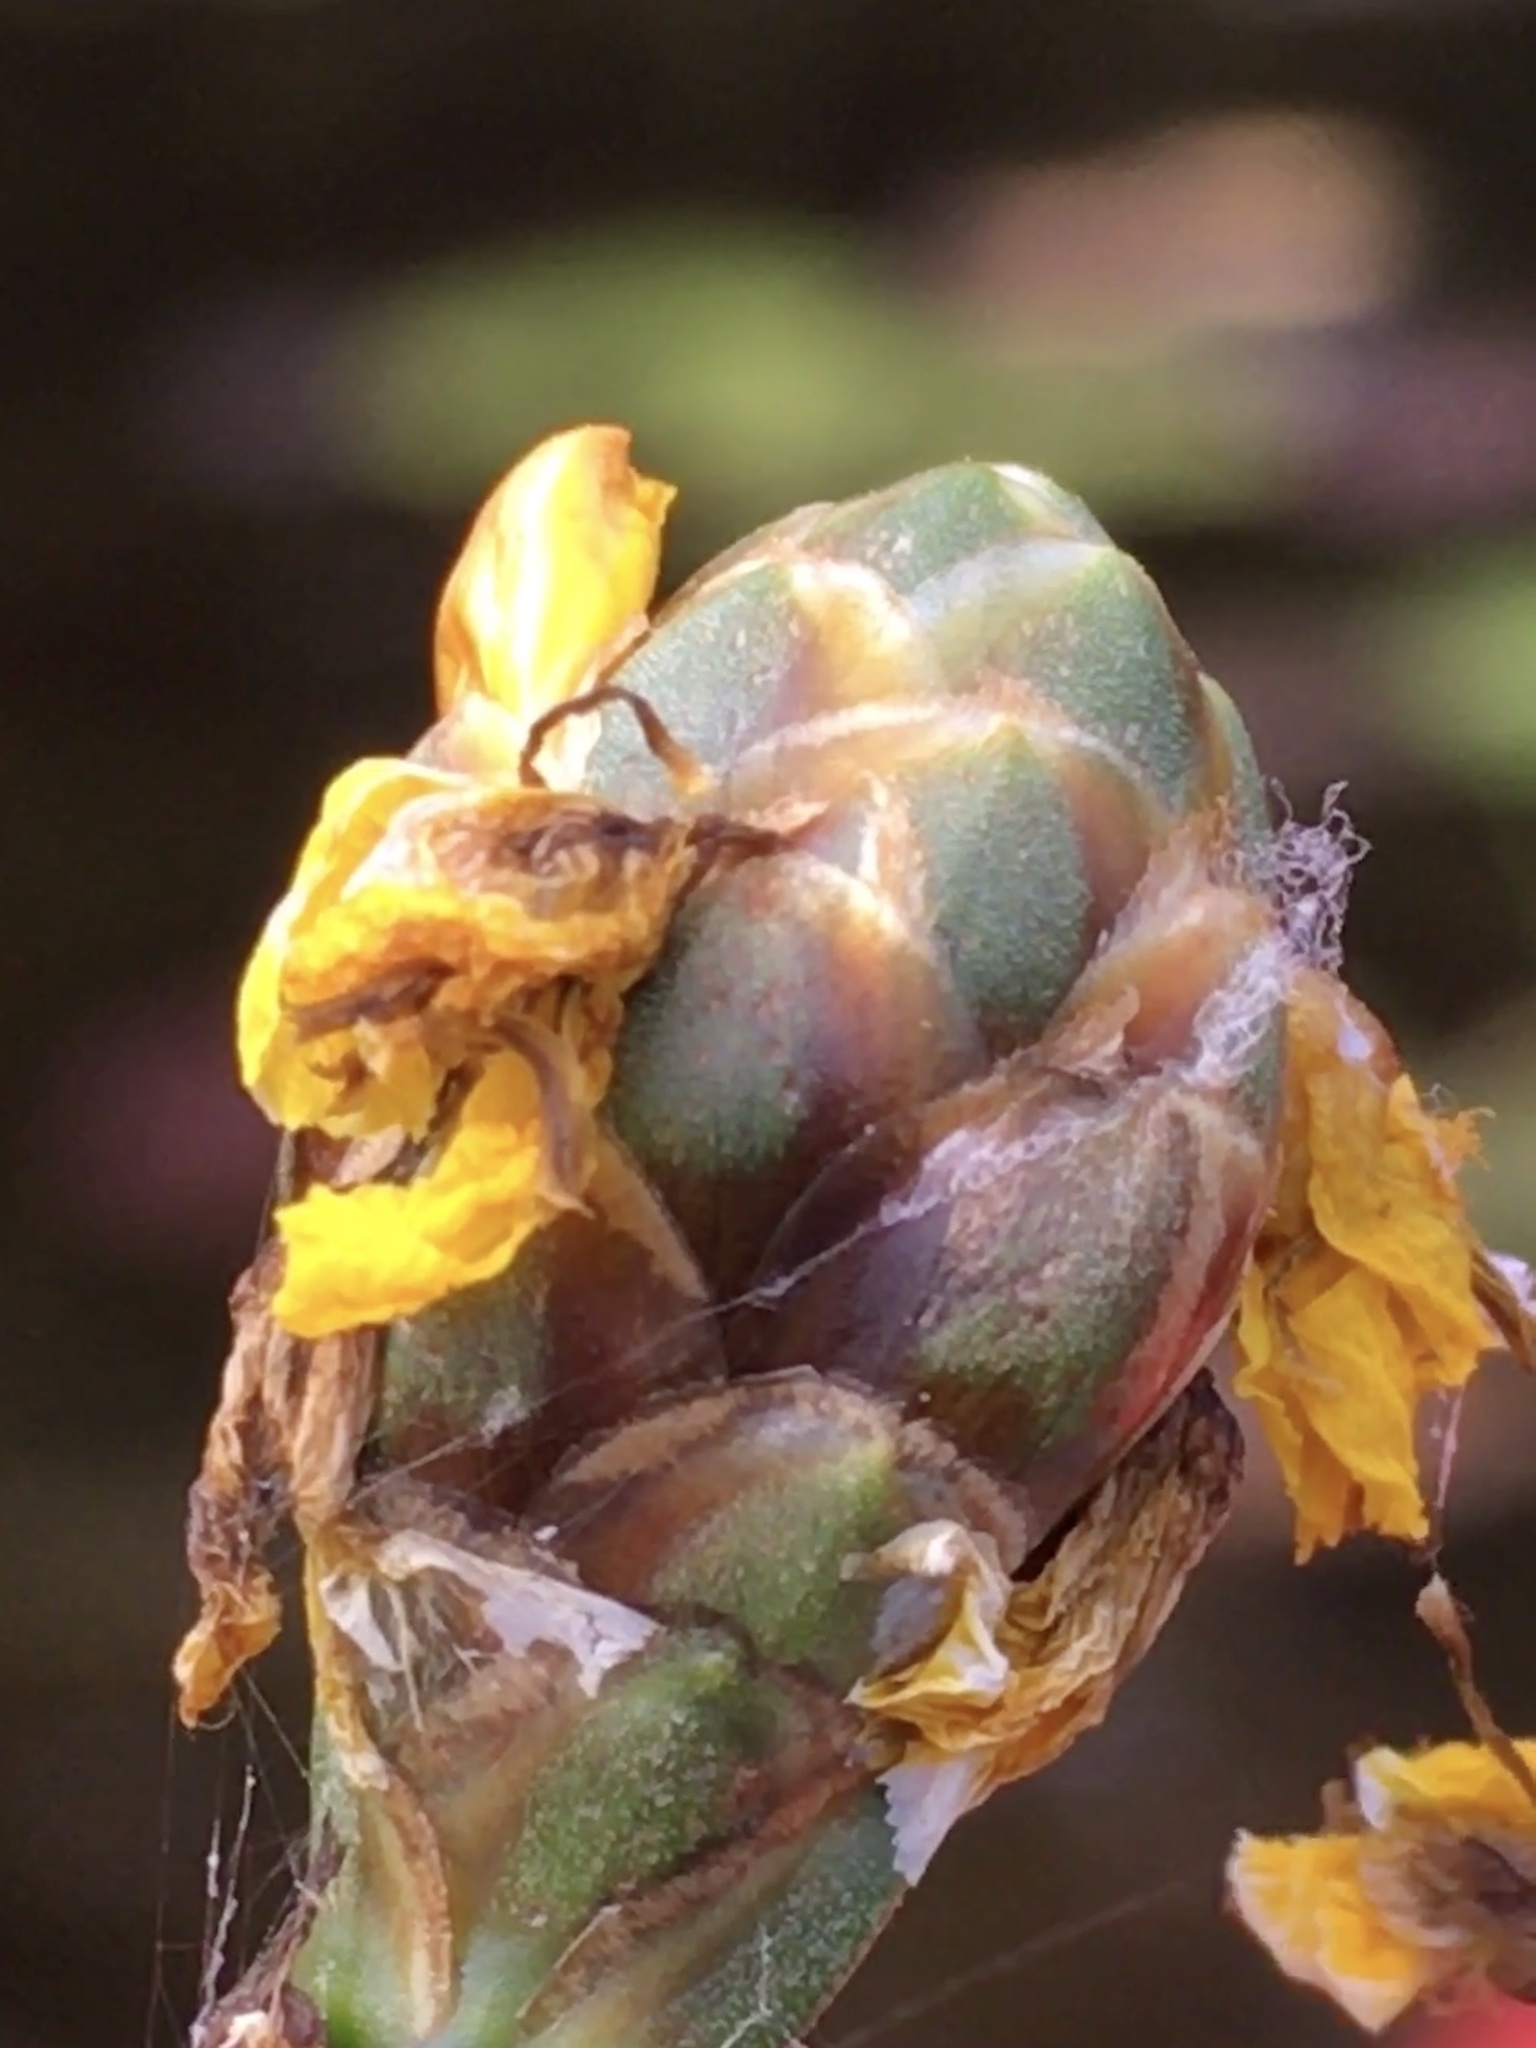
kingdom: Plantae
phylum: Tracheophyta
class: Liliopsida
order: Poales
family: Xyridaceae
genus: Xyris
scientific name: Xyris smalliana
